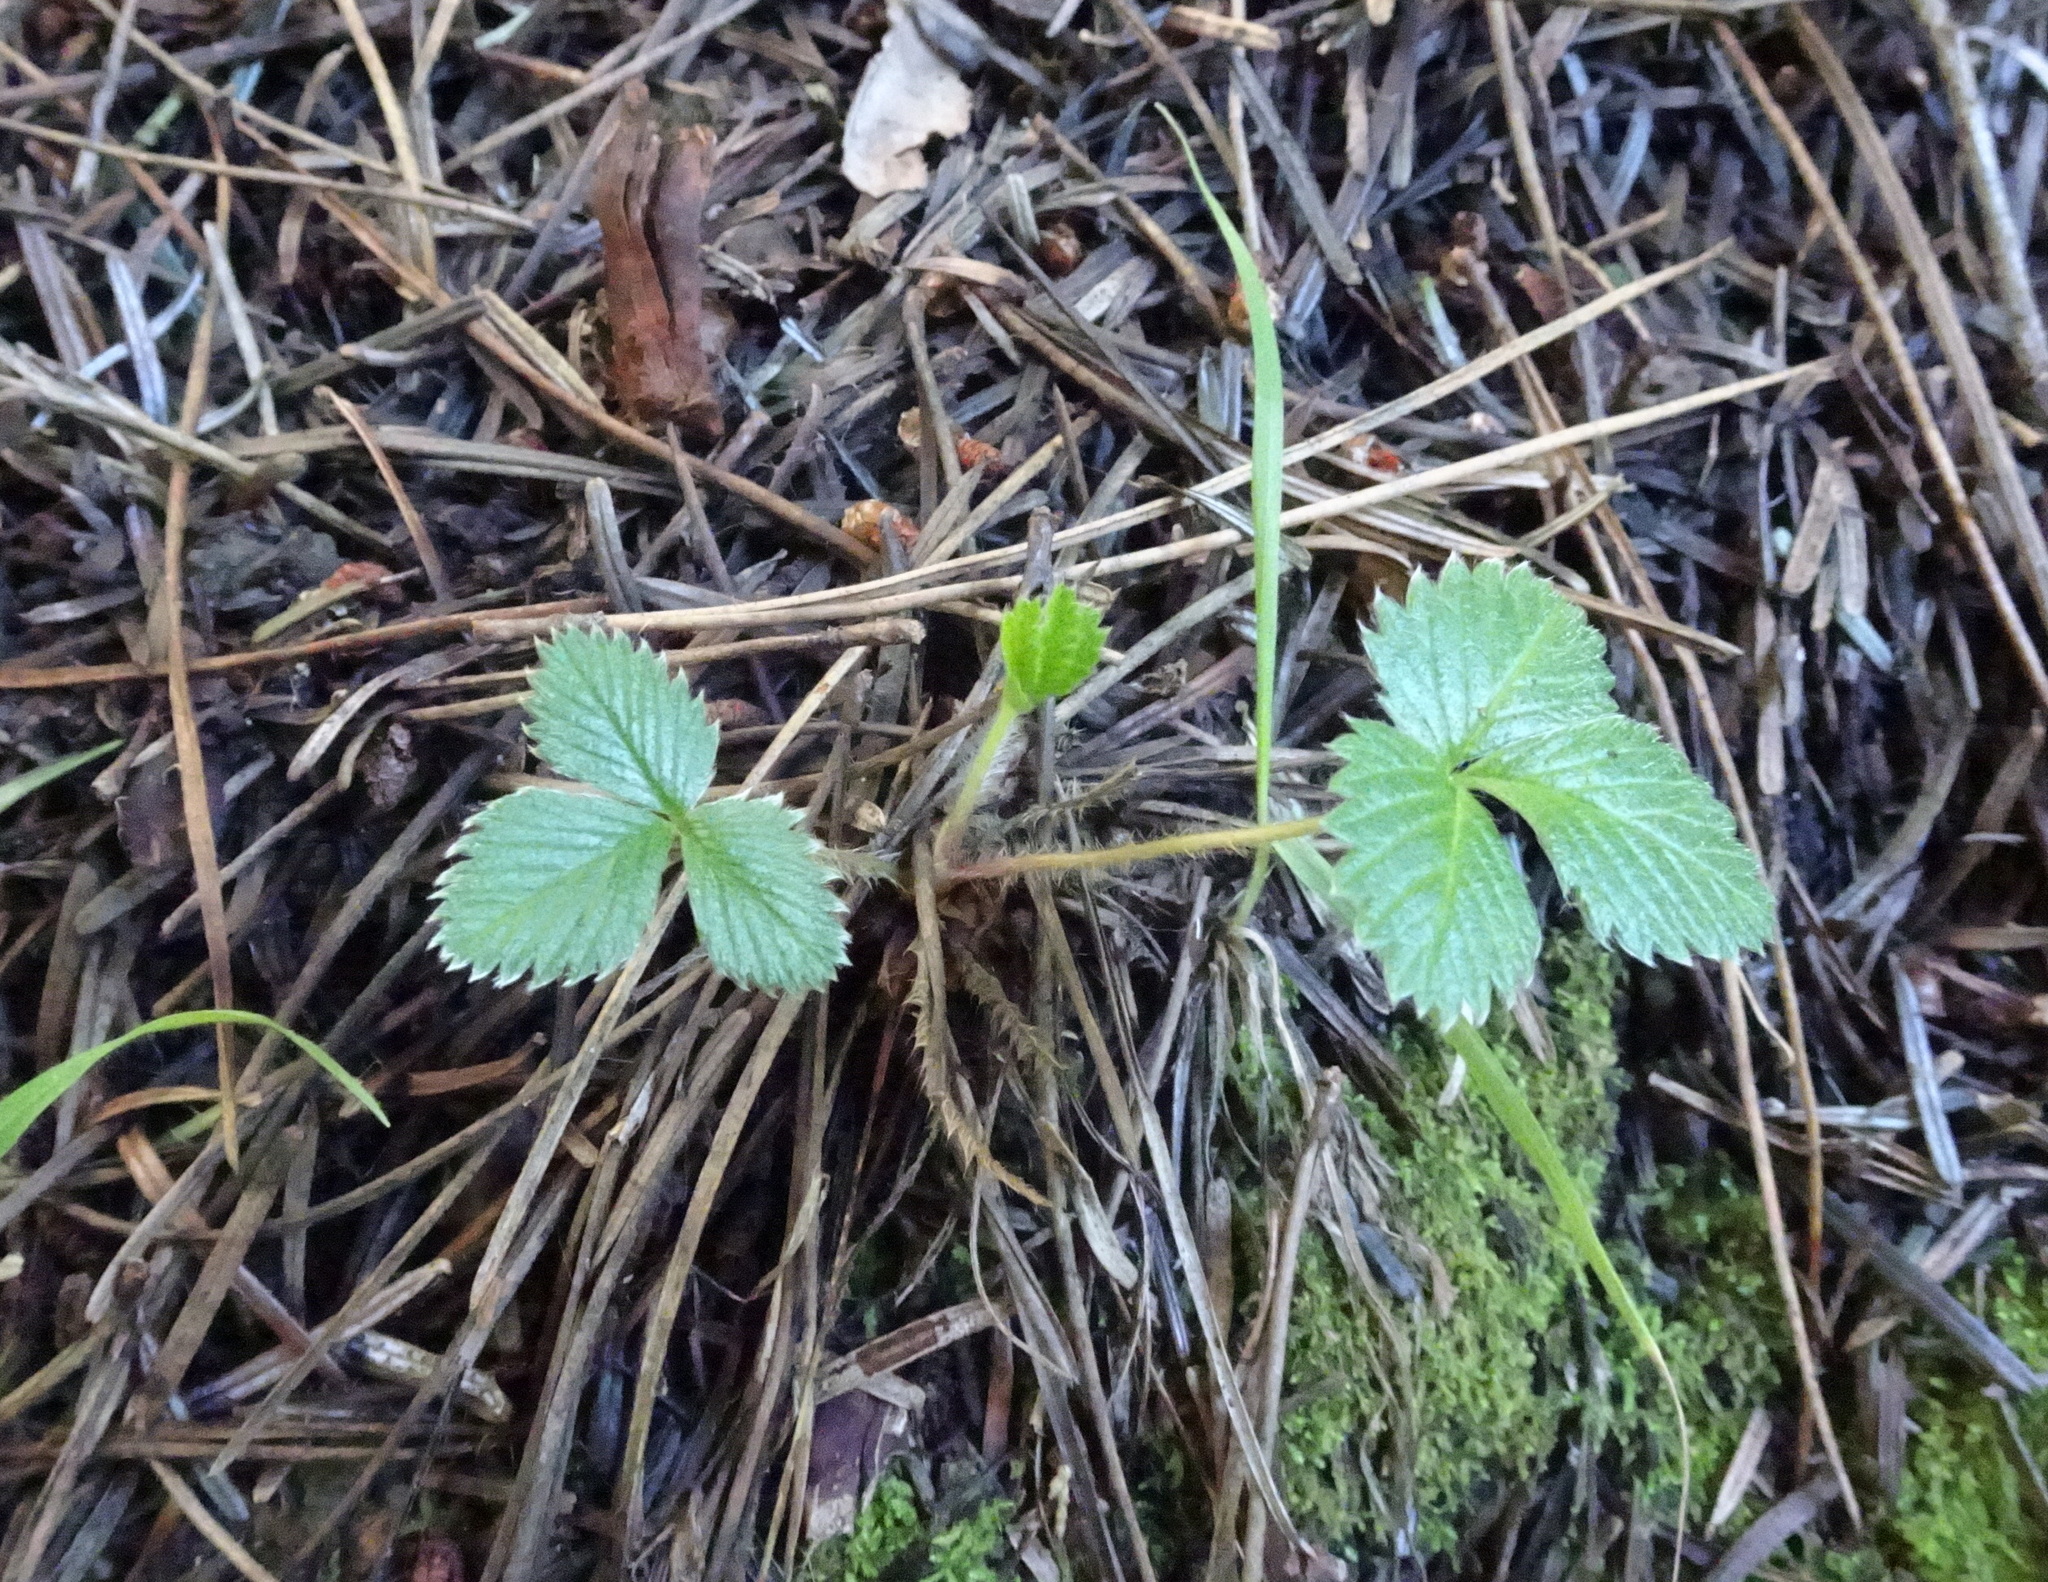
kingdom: Plantae
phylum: Tracheophyta
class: Magnoliopsida
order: Rosales
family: Rosaceae
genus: Fragaria
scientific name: Fragaria vesca
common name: Wild strawberry
